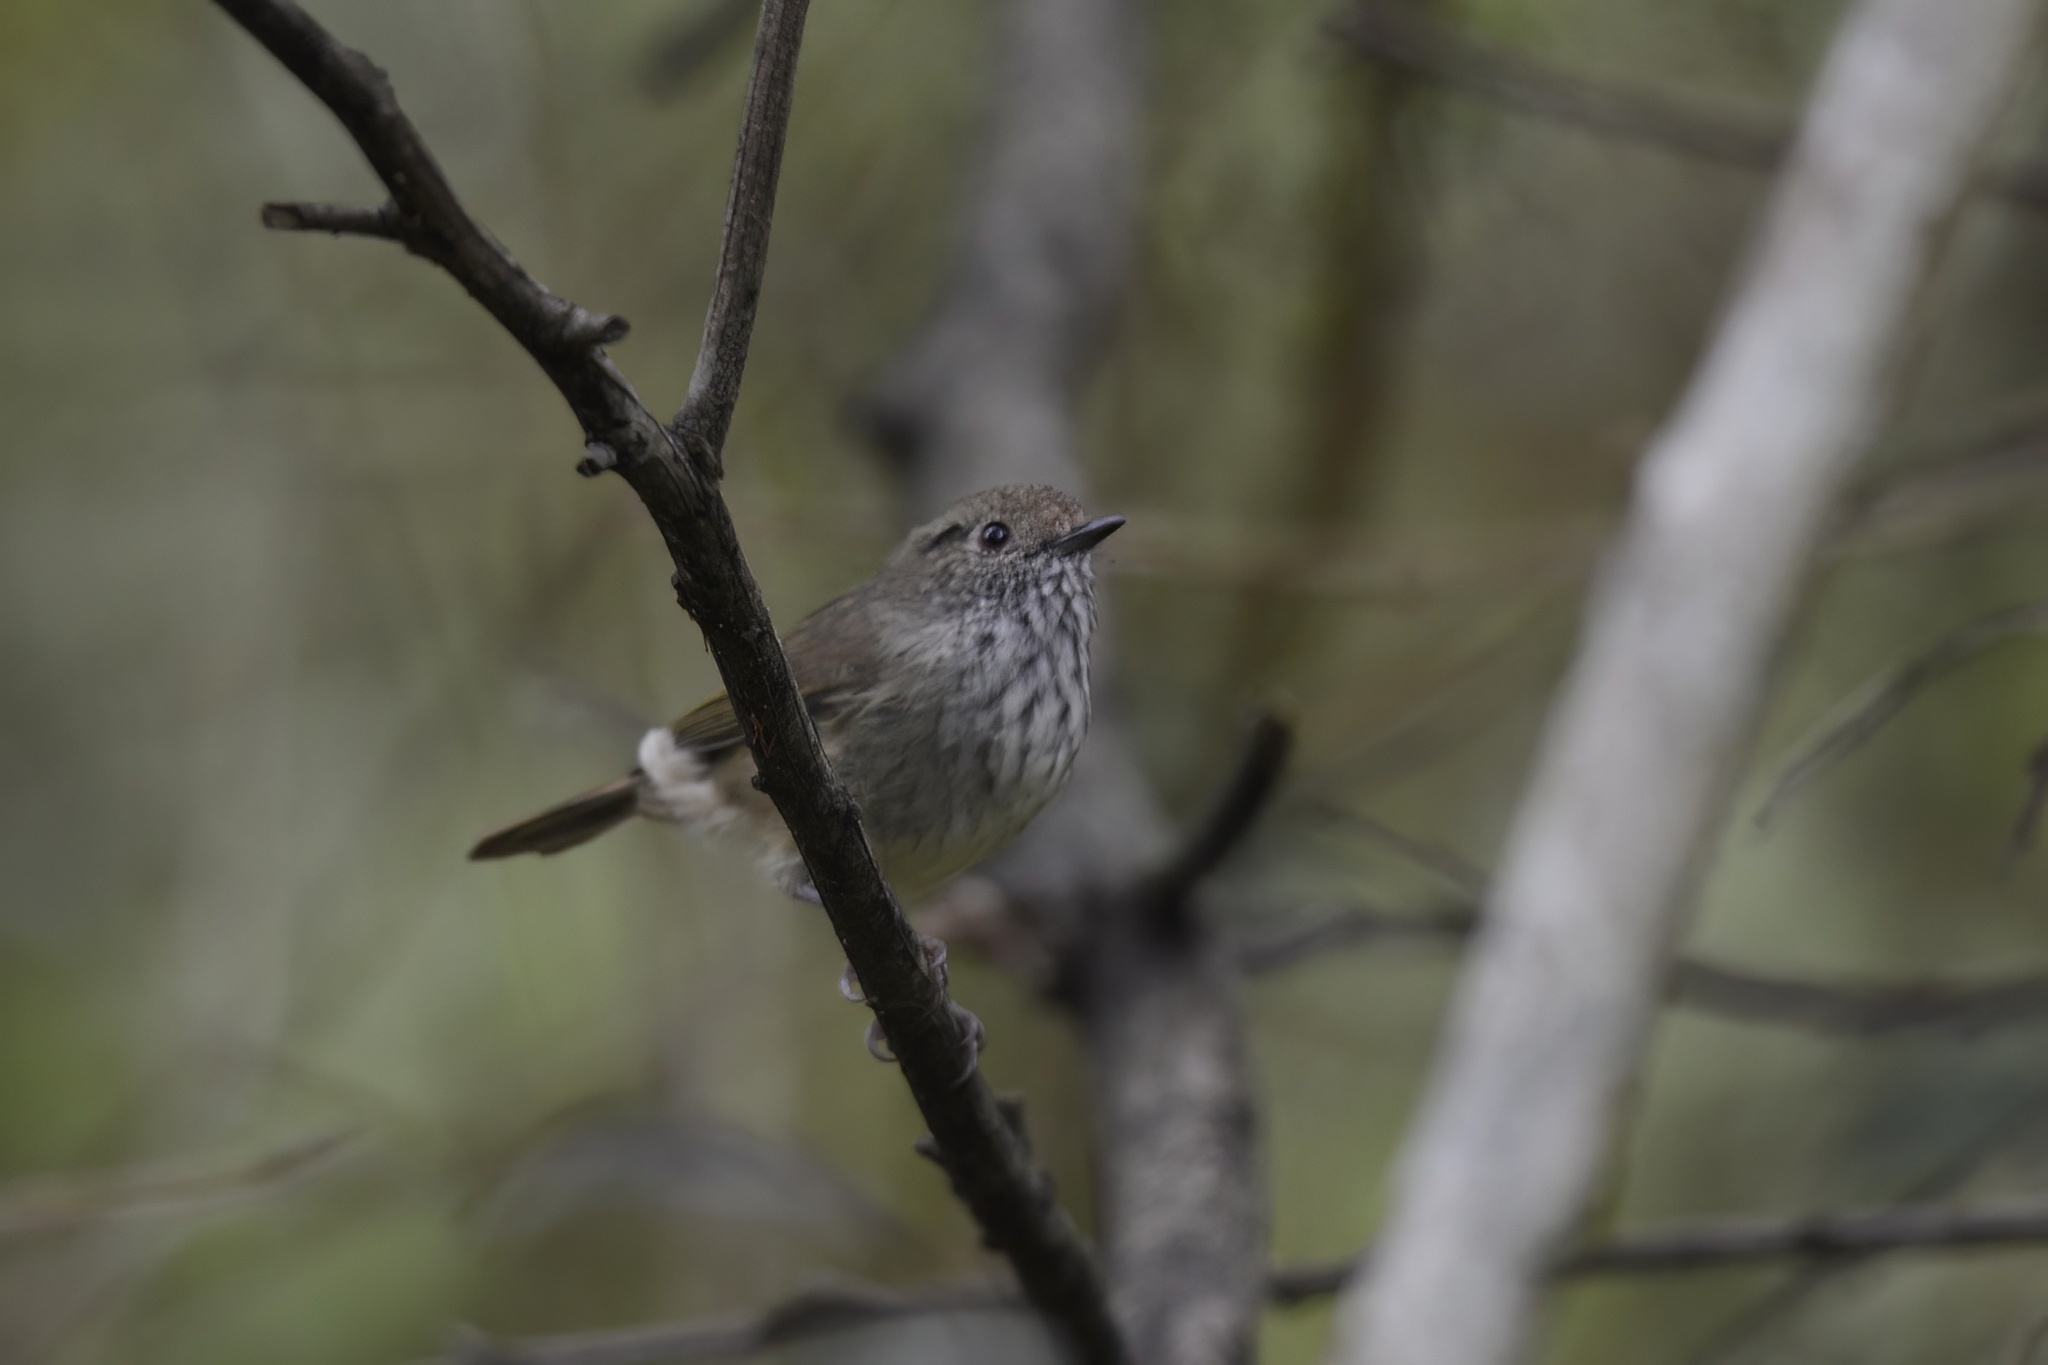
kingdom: Animalia
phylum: Chordata
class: Aves
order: Passeriformes
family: Acanthizidae
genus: Acanthiza
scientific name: Acanthiza pusilla
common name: Brown thornbill
